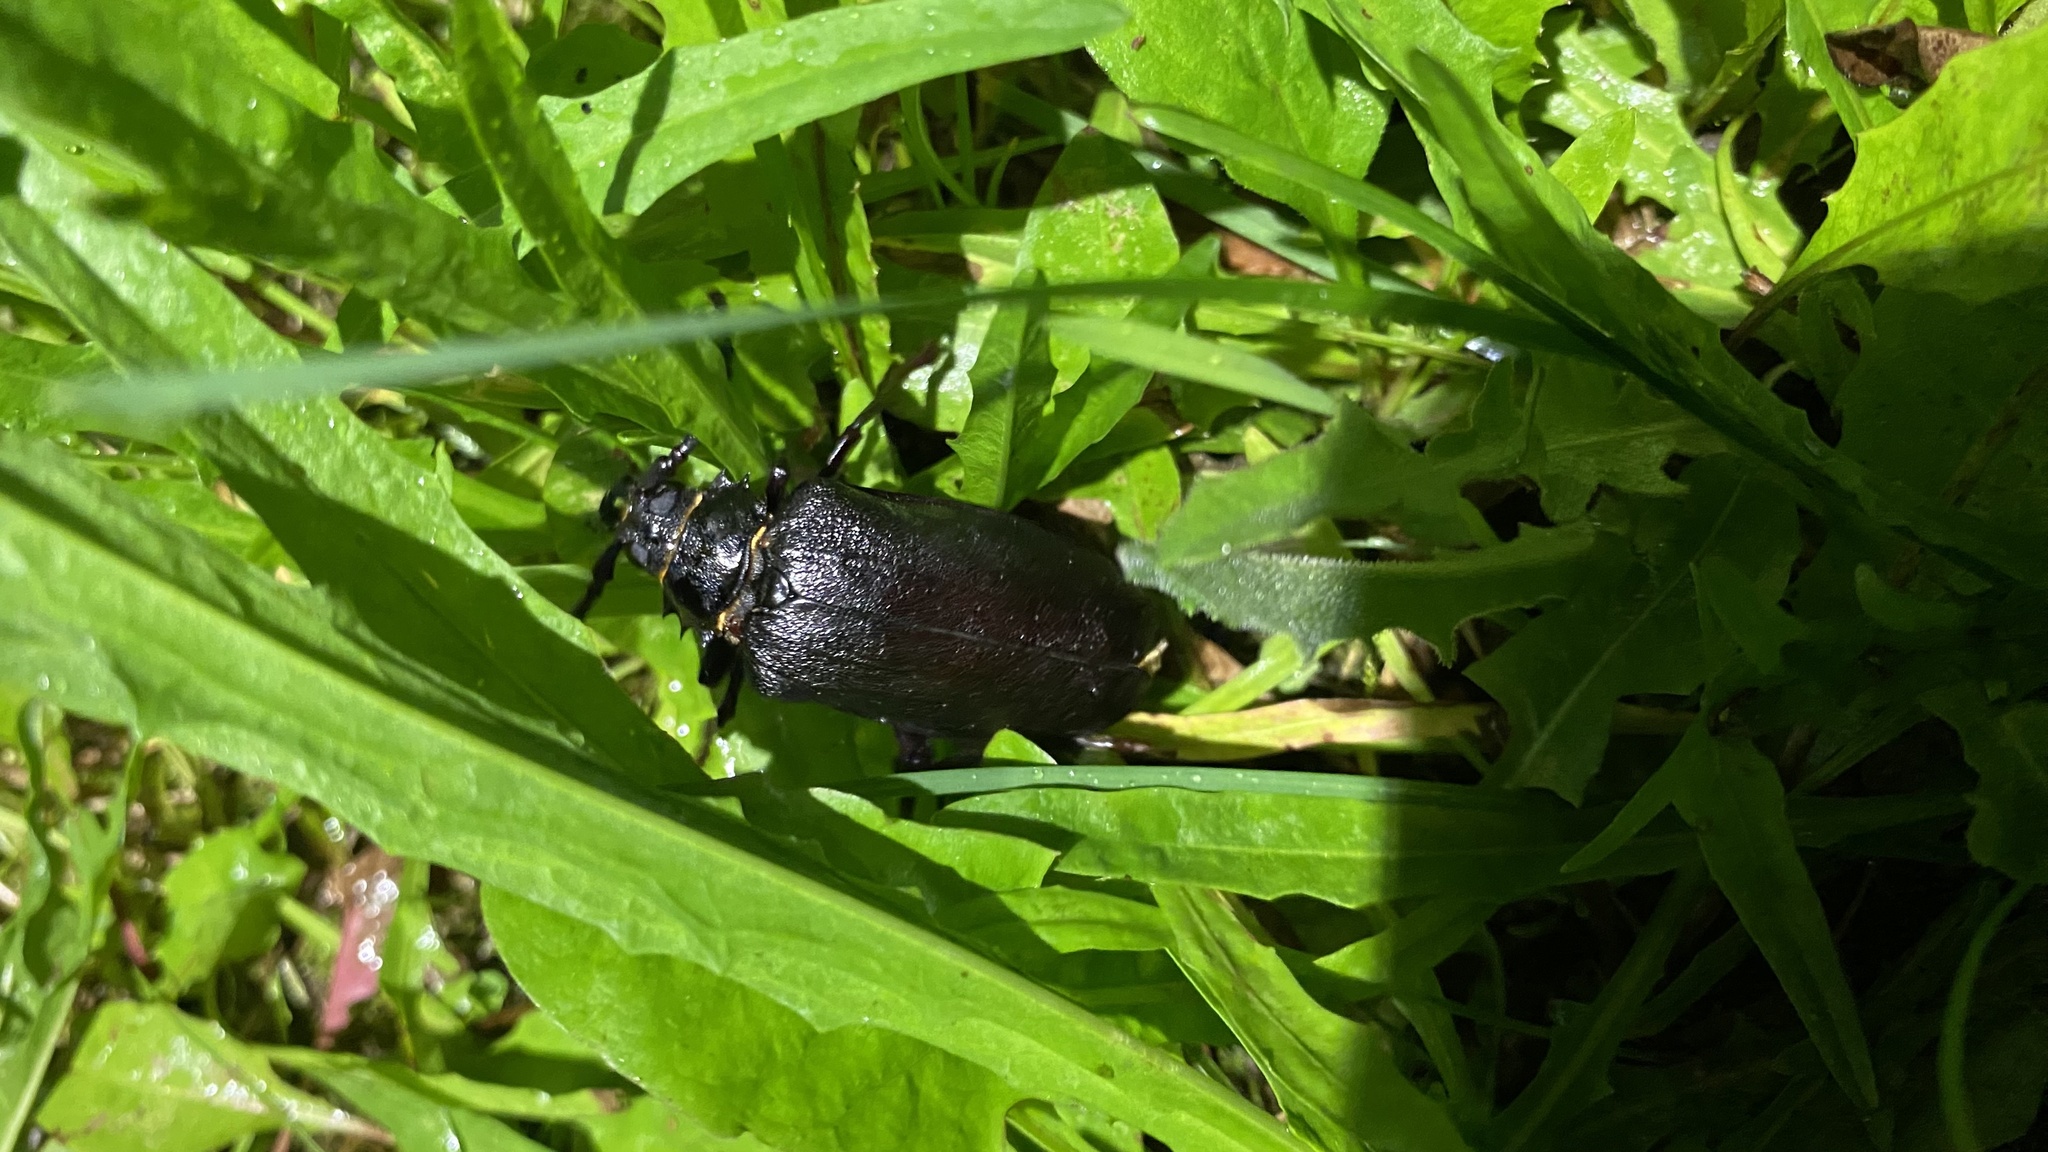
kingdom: Animalia
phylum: Arthropoda
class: Insecta
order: Coleoptera
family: Cerambycidae
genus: Prionus
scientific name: Prionus coriarius
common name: Tanner beetle
